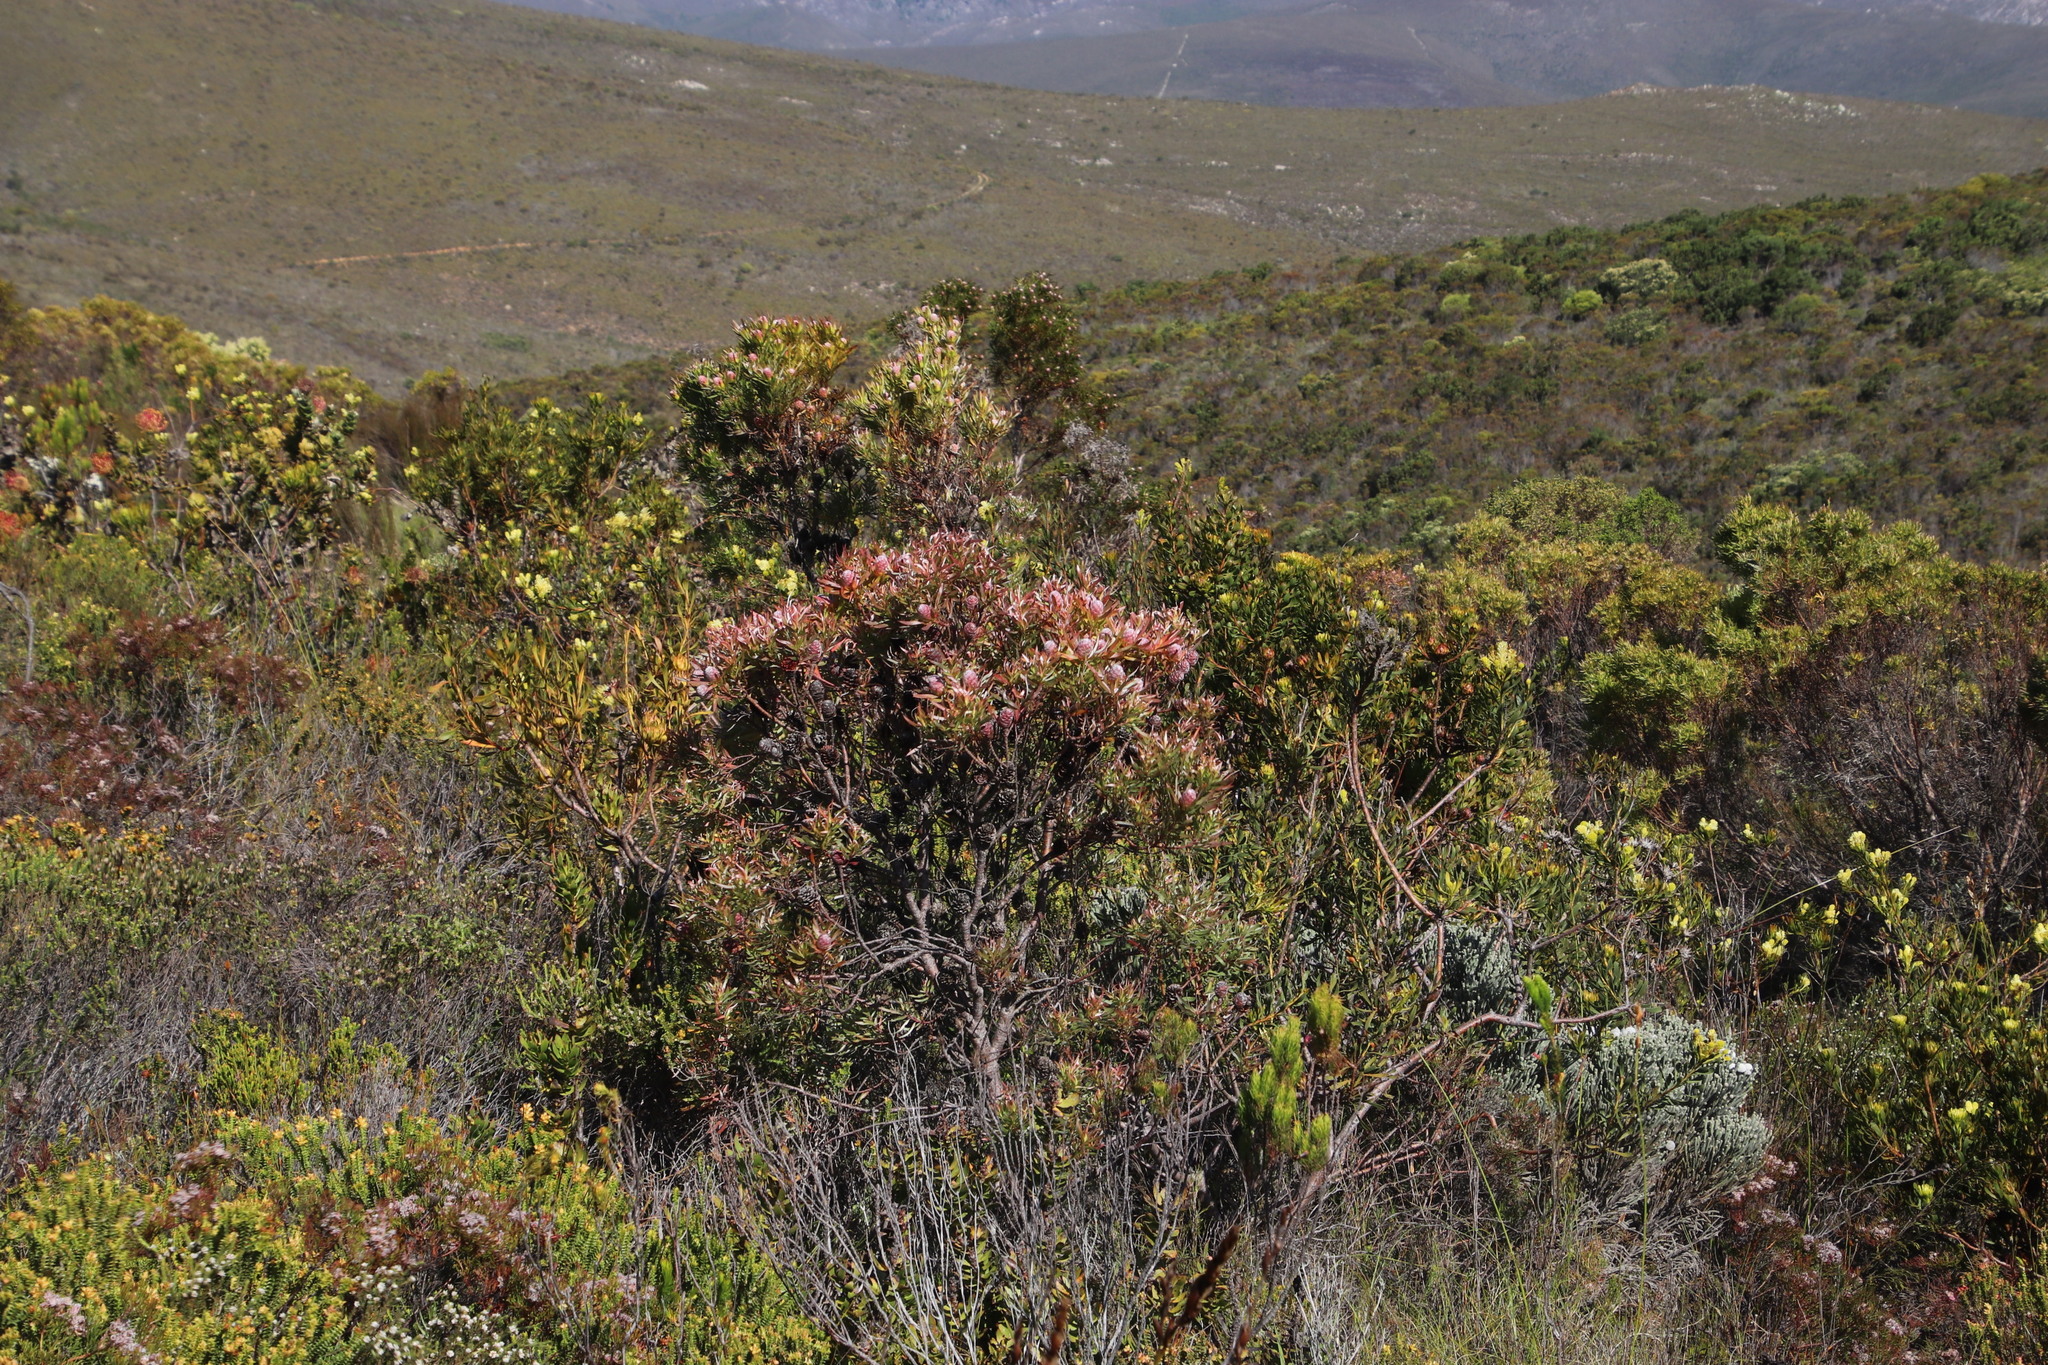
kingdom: Plantae
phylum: Tracheophyta
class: Magnoliopsida
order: Proteales
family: Proteaceae
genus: Leucadendron
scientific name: Leucadendron xanthoconus
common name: Sickle-leaf conebush
